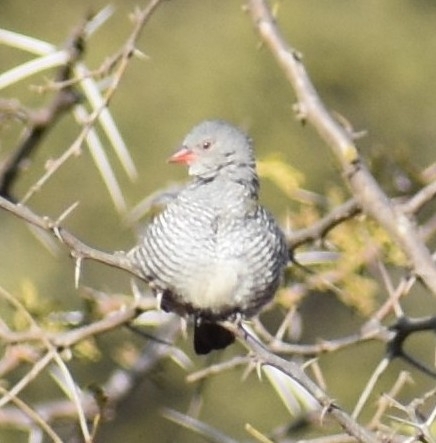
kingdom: Animalia
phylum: Chordata
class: Aves
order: Passeriformes
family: Estrildidae
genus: Pytilia
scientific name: Pytilia melba
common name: Green-winged pytilia
